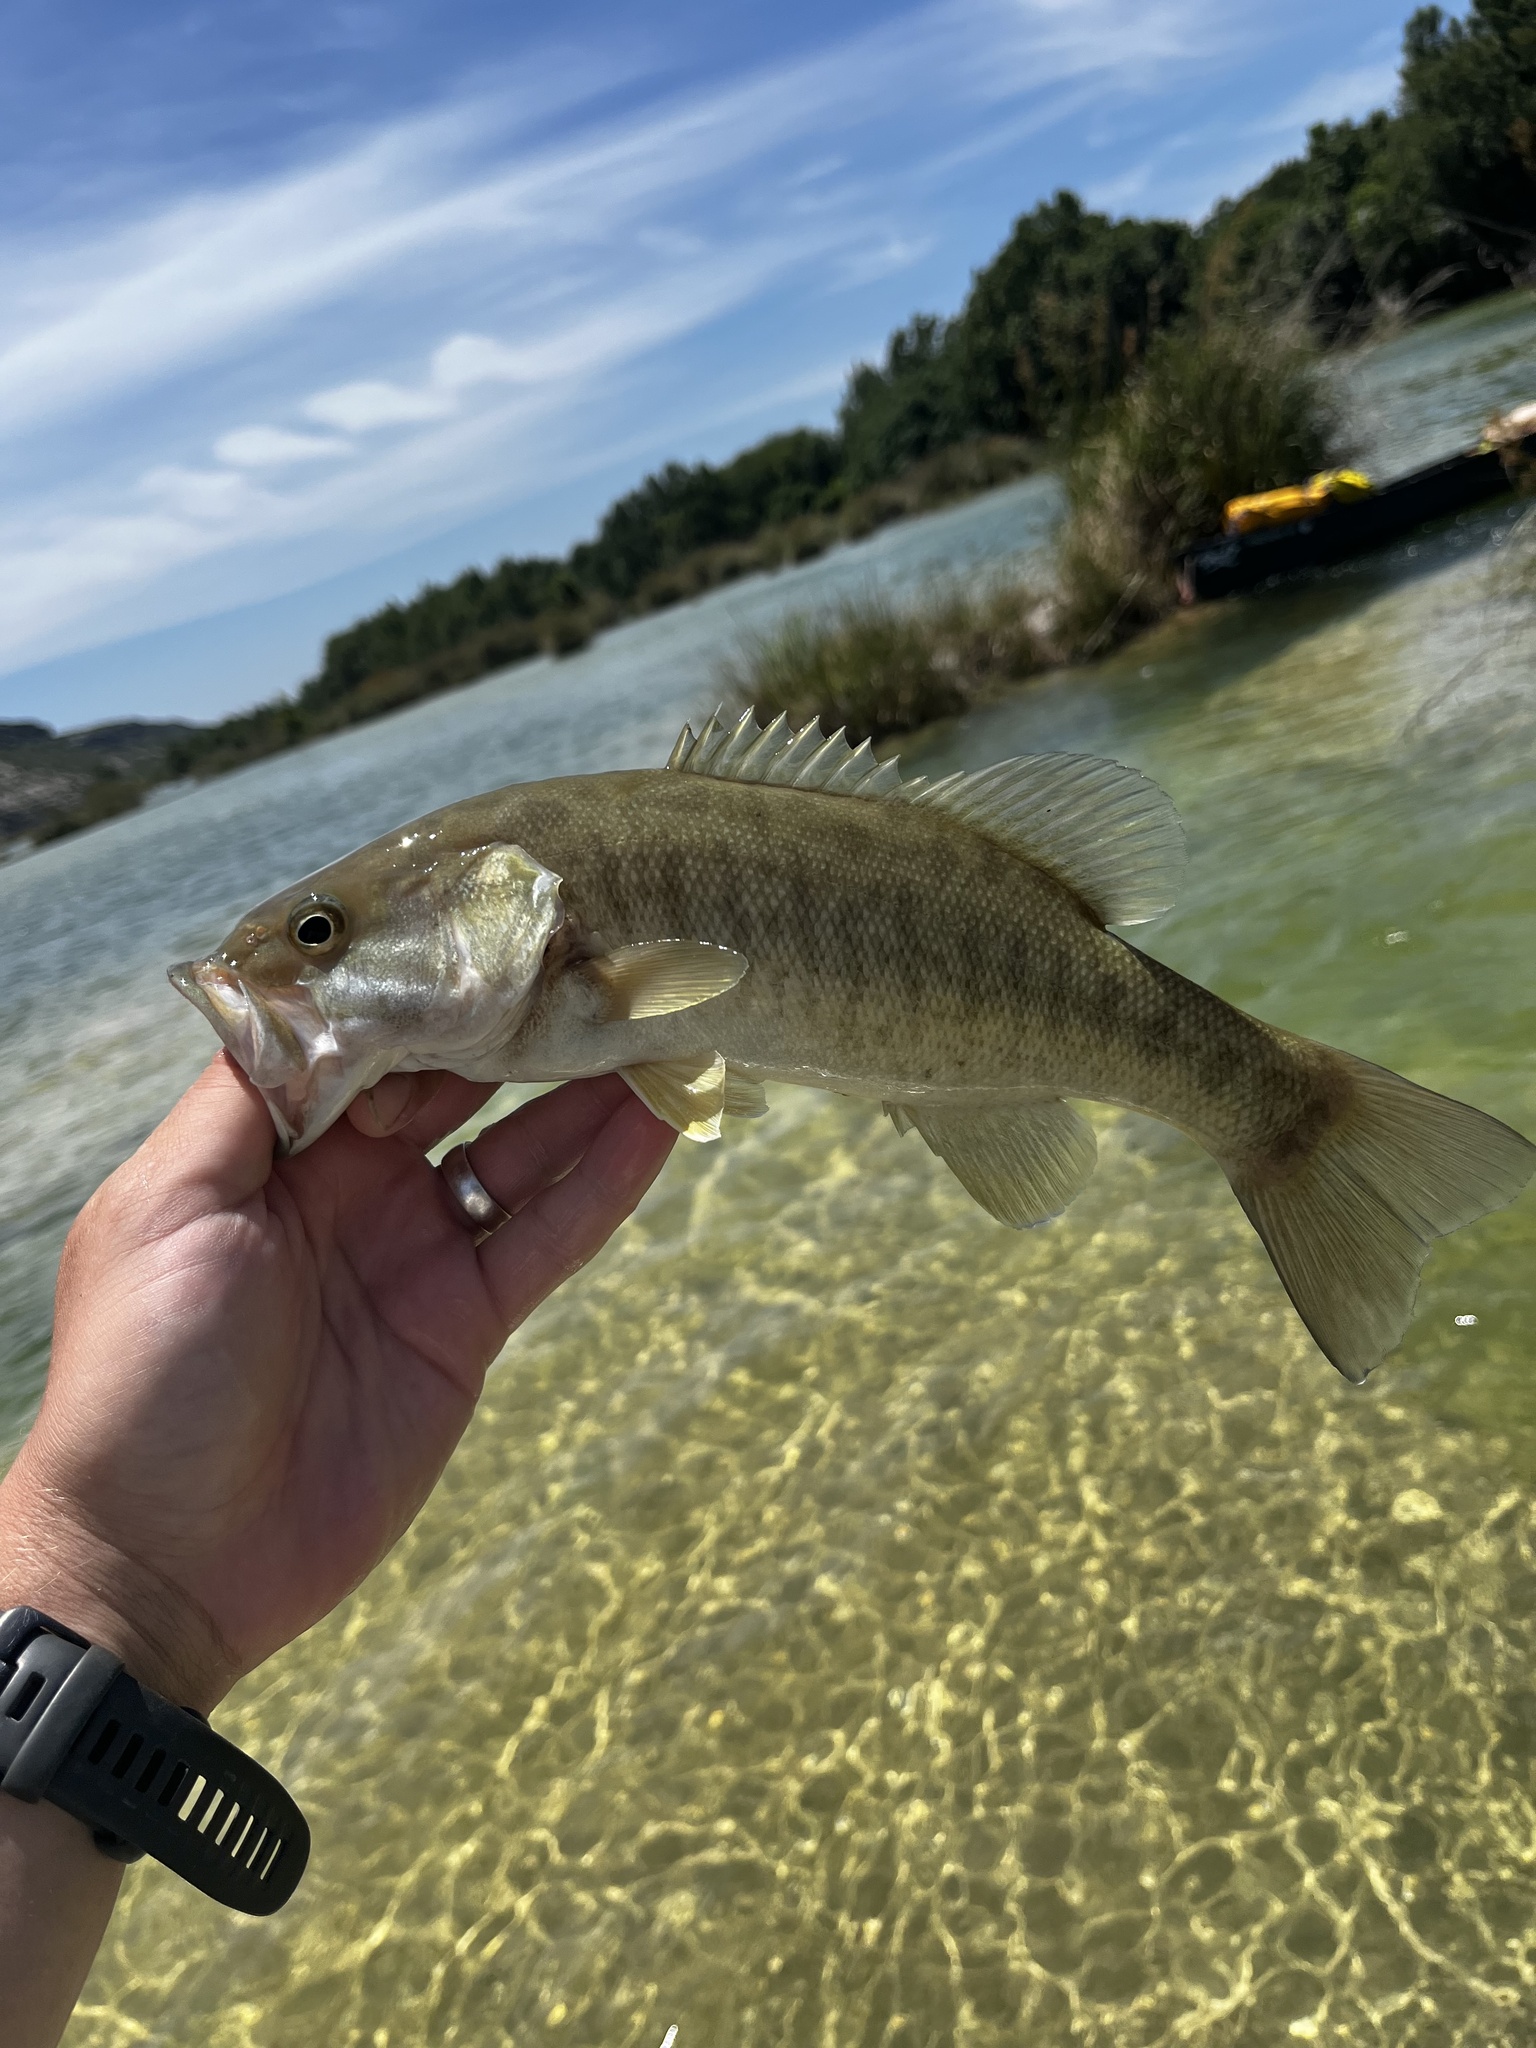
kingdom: Animalia
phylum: Chordata
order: Perciformes
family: Centrarchidae
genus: Micropterus
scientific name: Micropterus dolomieu
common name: Smallmouth bass
